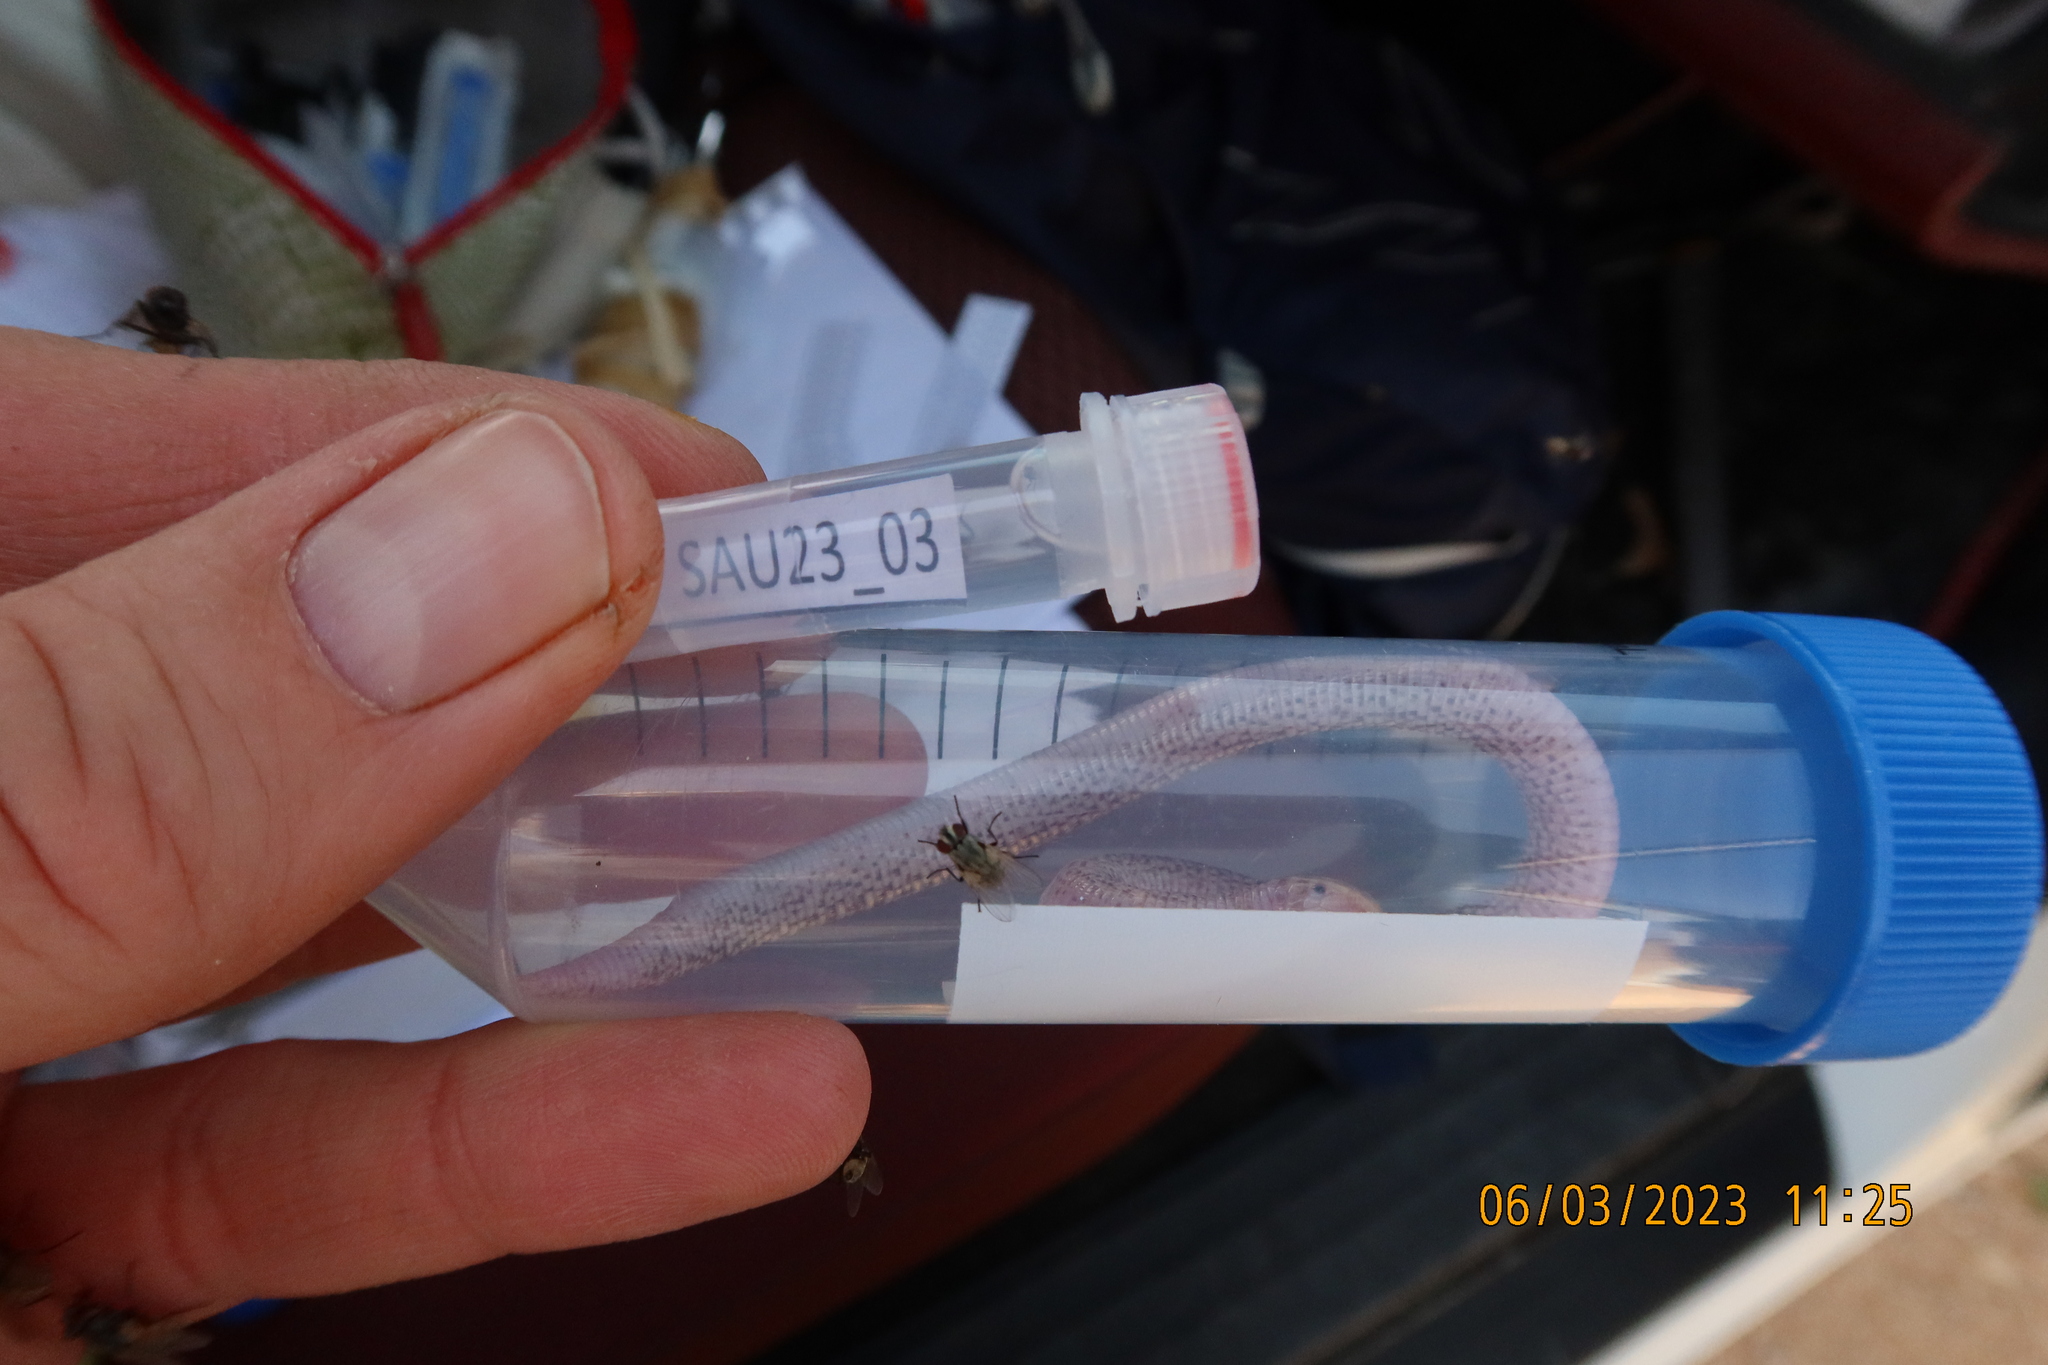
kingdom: Animalia
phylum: Chordata
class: Squamata
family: Trogonophidae
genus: Diplometopon
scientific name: Diplometopon zarudnyi
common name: Zarudnyi's worm lizard
